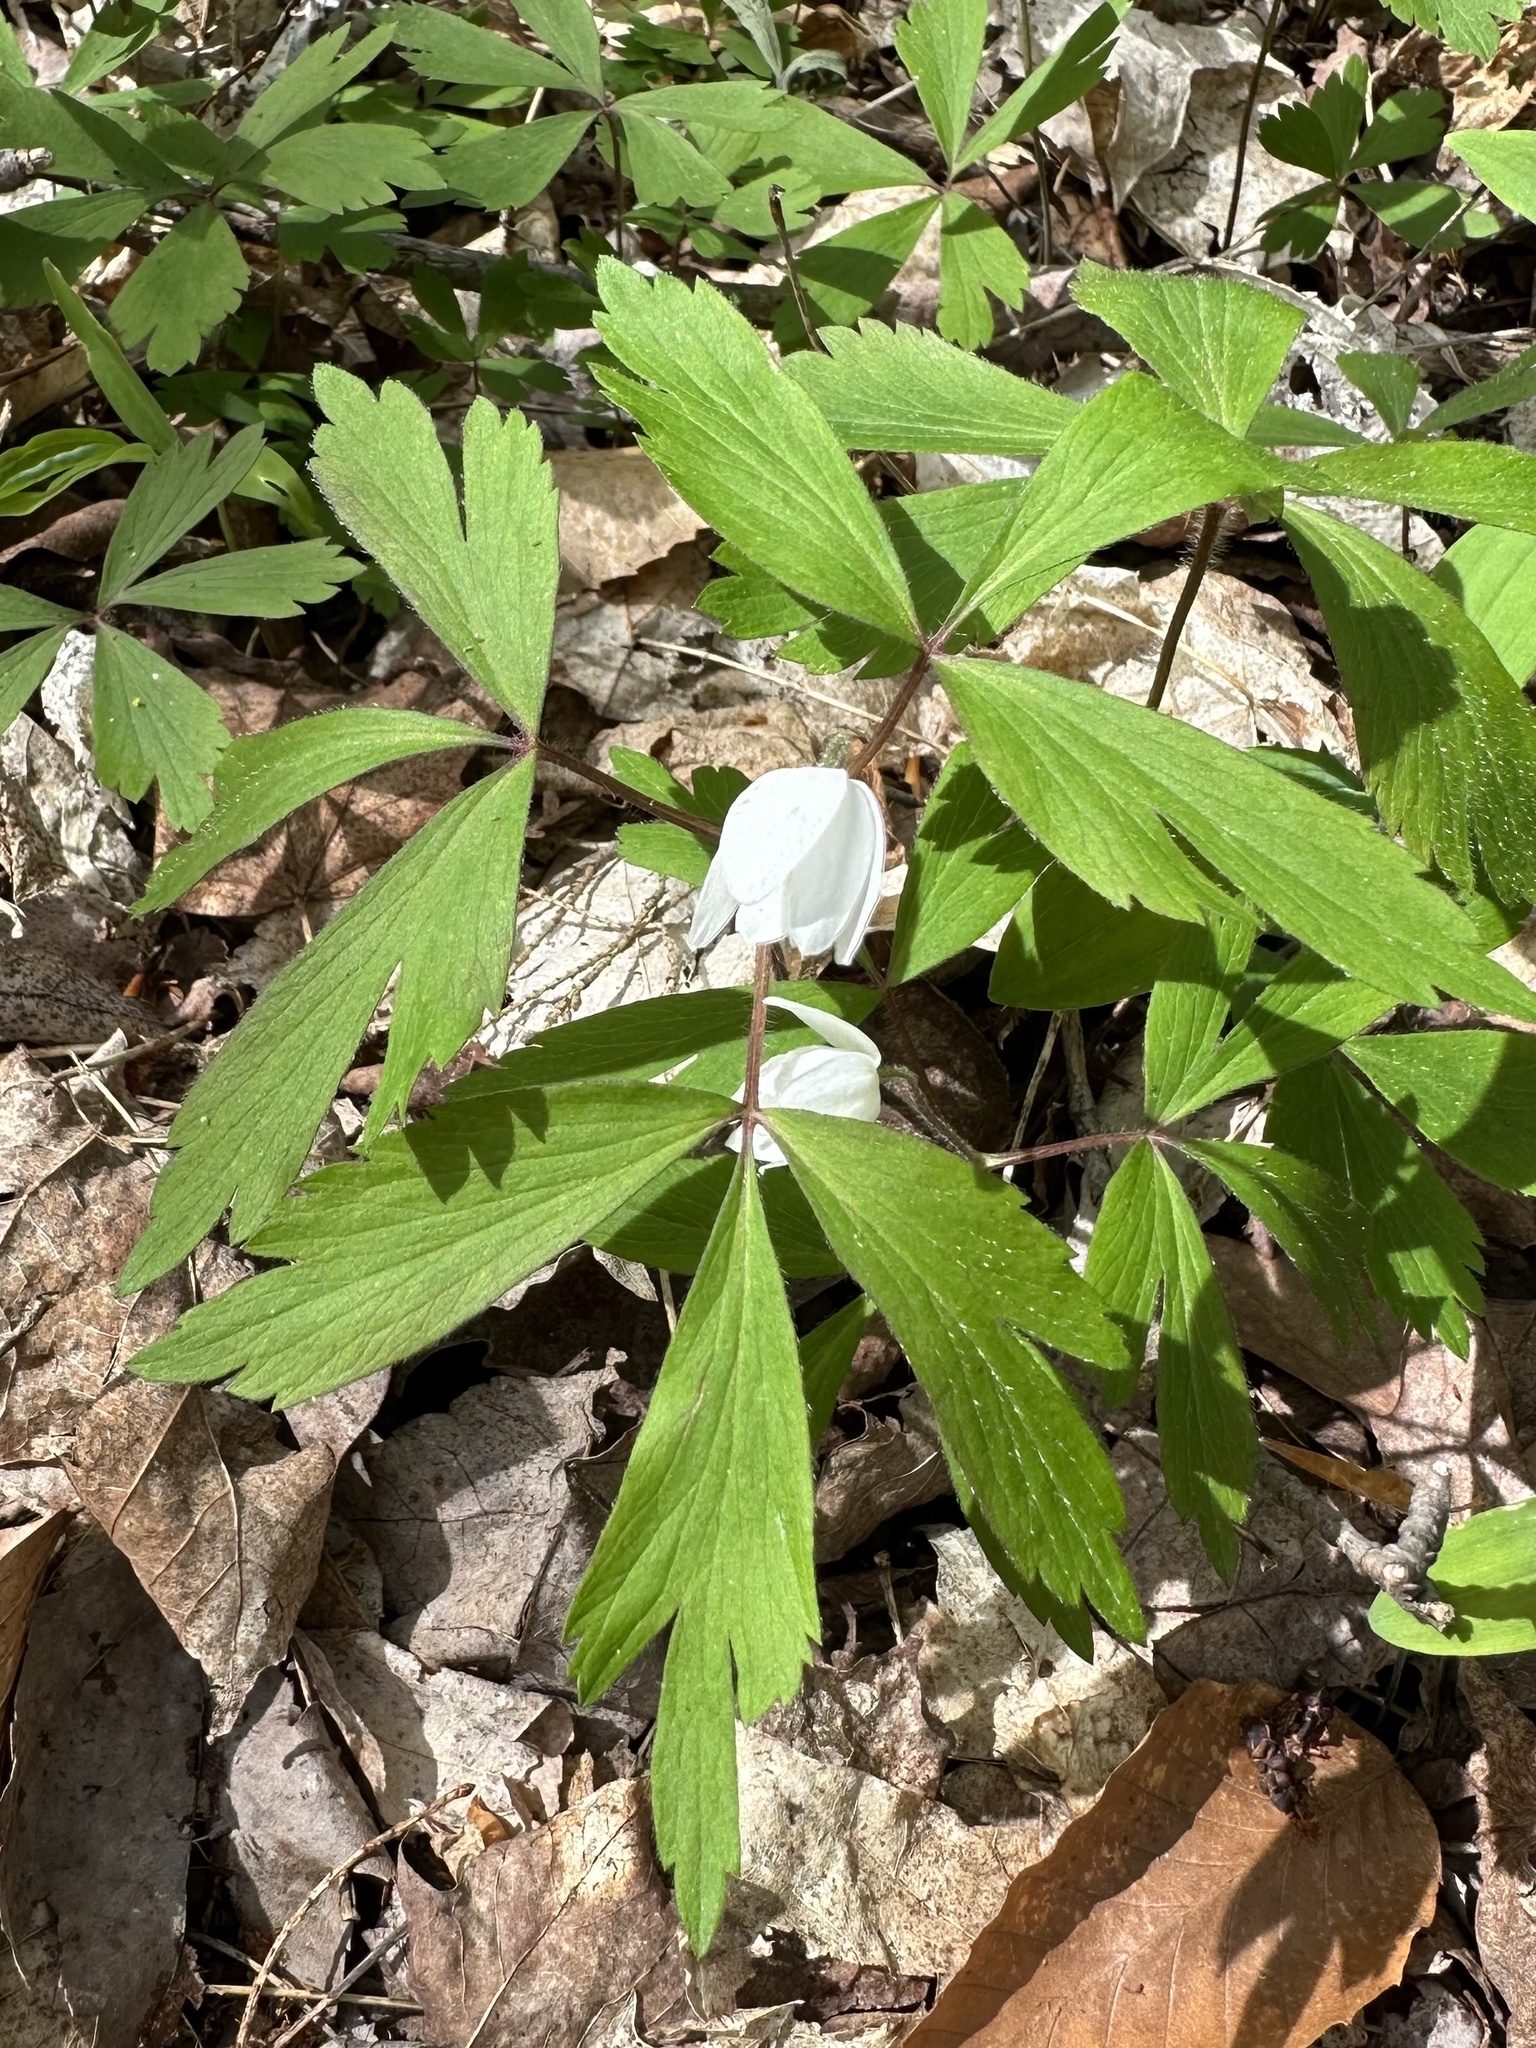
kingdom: Plantae
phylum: Tracheophyta
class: Magnoliopsida
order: Ranunculales
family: Ranunculaceae
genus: Anemone
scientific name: Anemone quinquefolia
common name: Wood anemone
